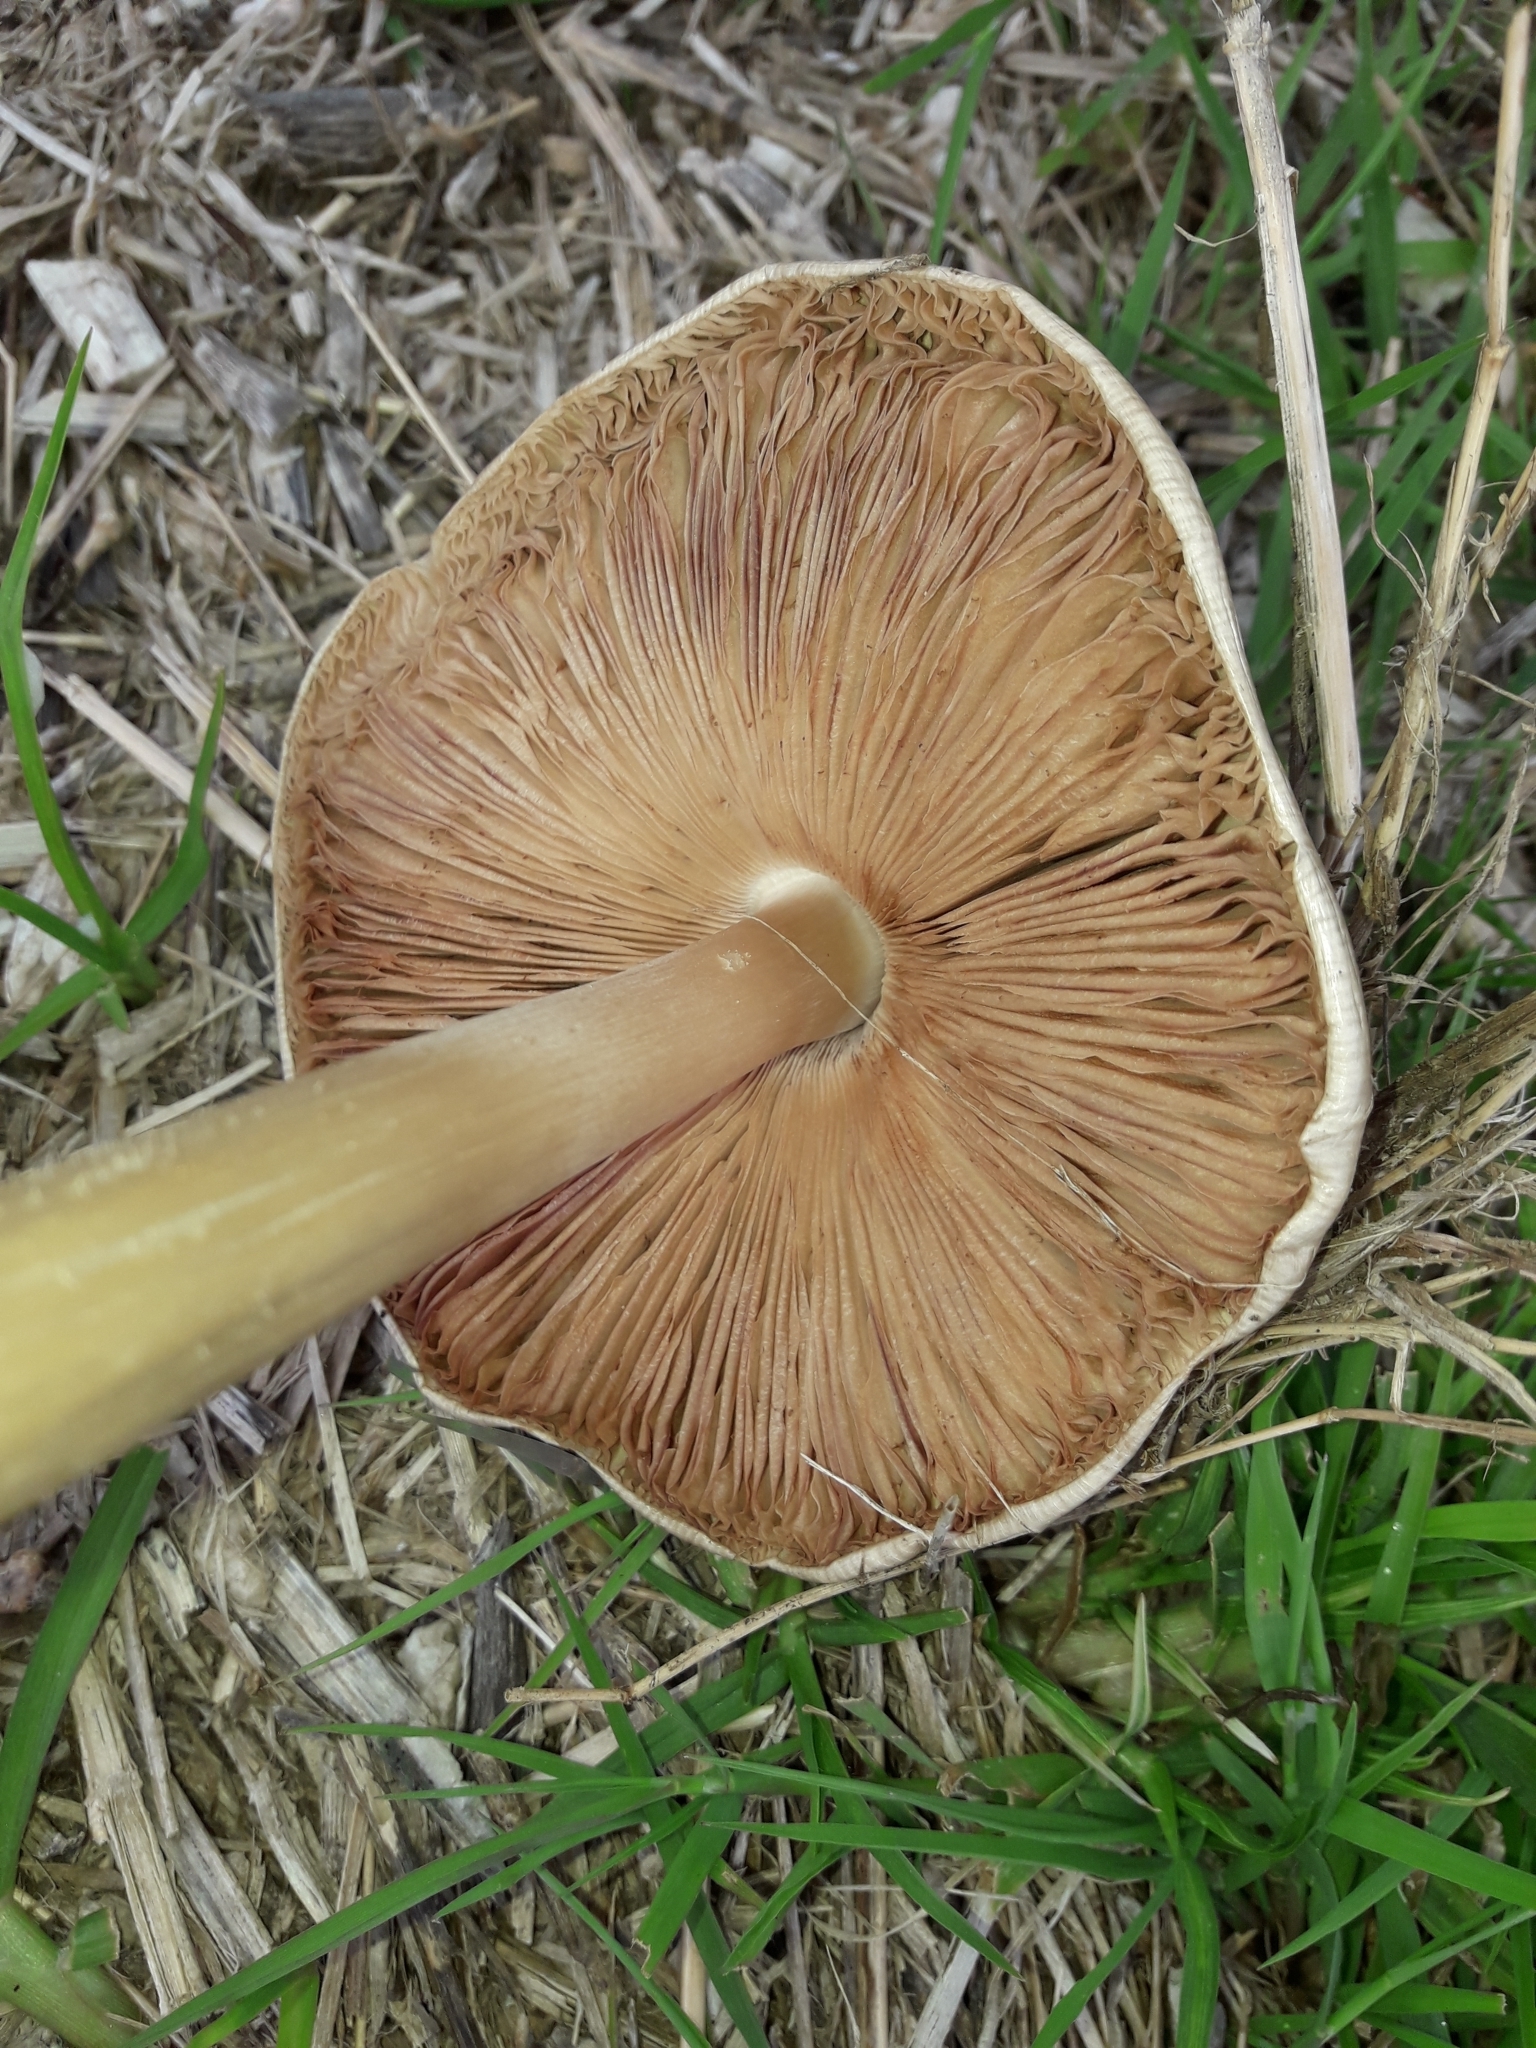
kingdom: Fungi
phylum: Basidiomycota
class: Agaricomycetes
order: Agaricales
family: Pluteaceae
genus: Volvopluteus
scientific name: Volvopluteus gloiocephalus
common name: Stubble rosegill
